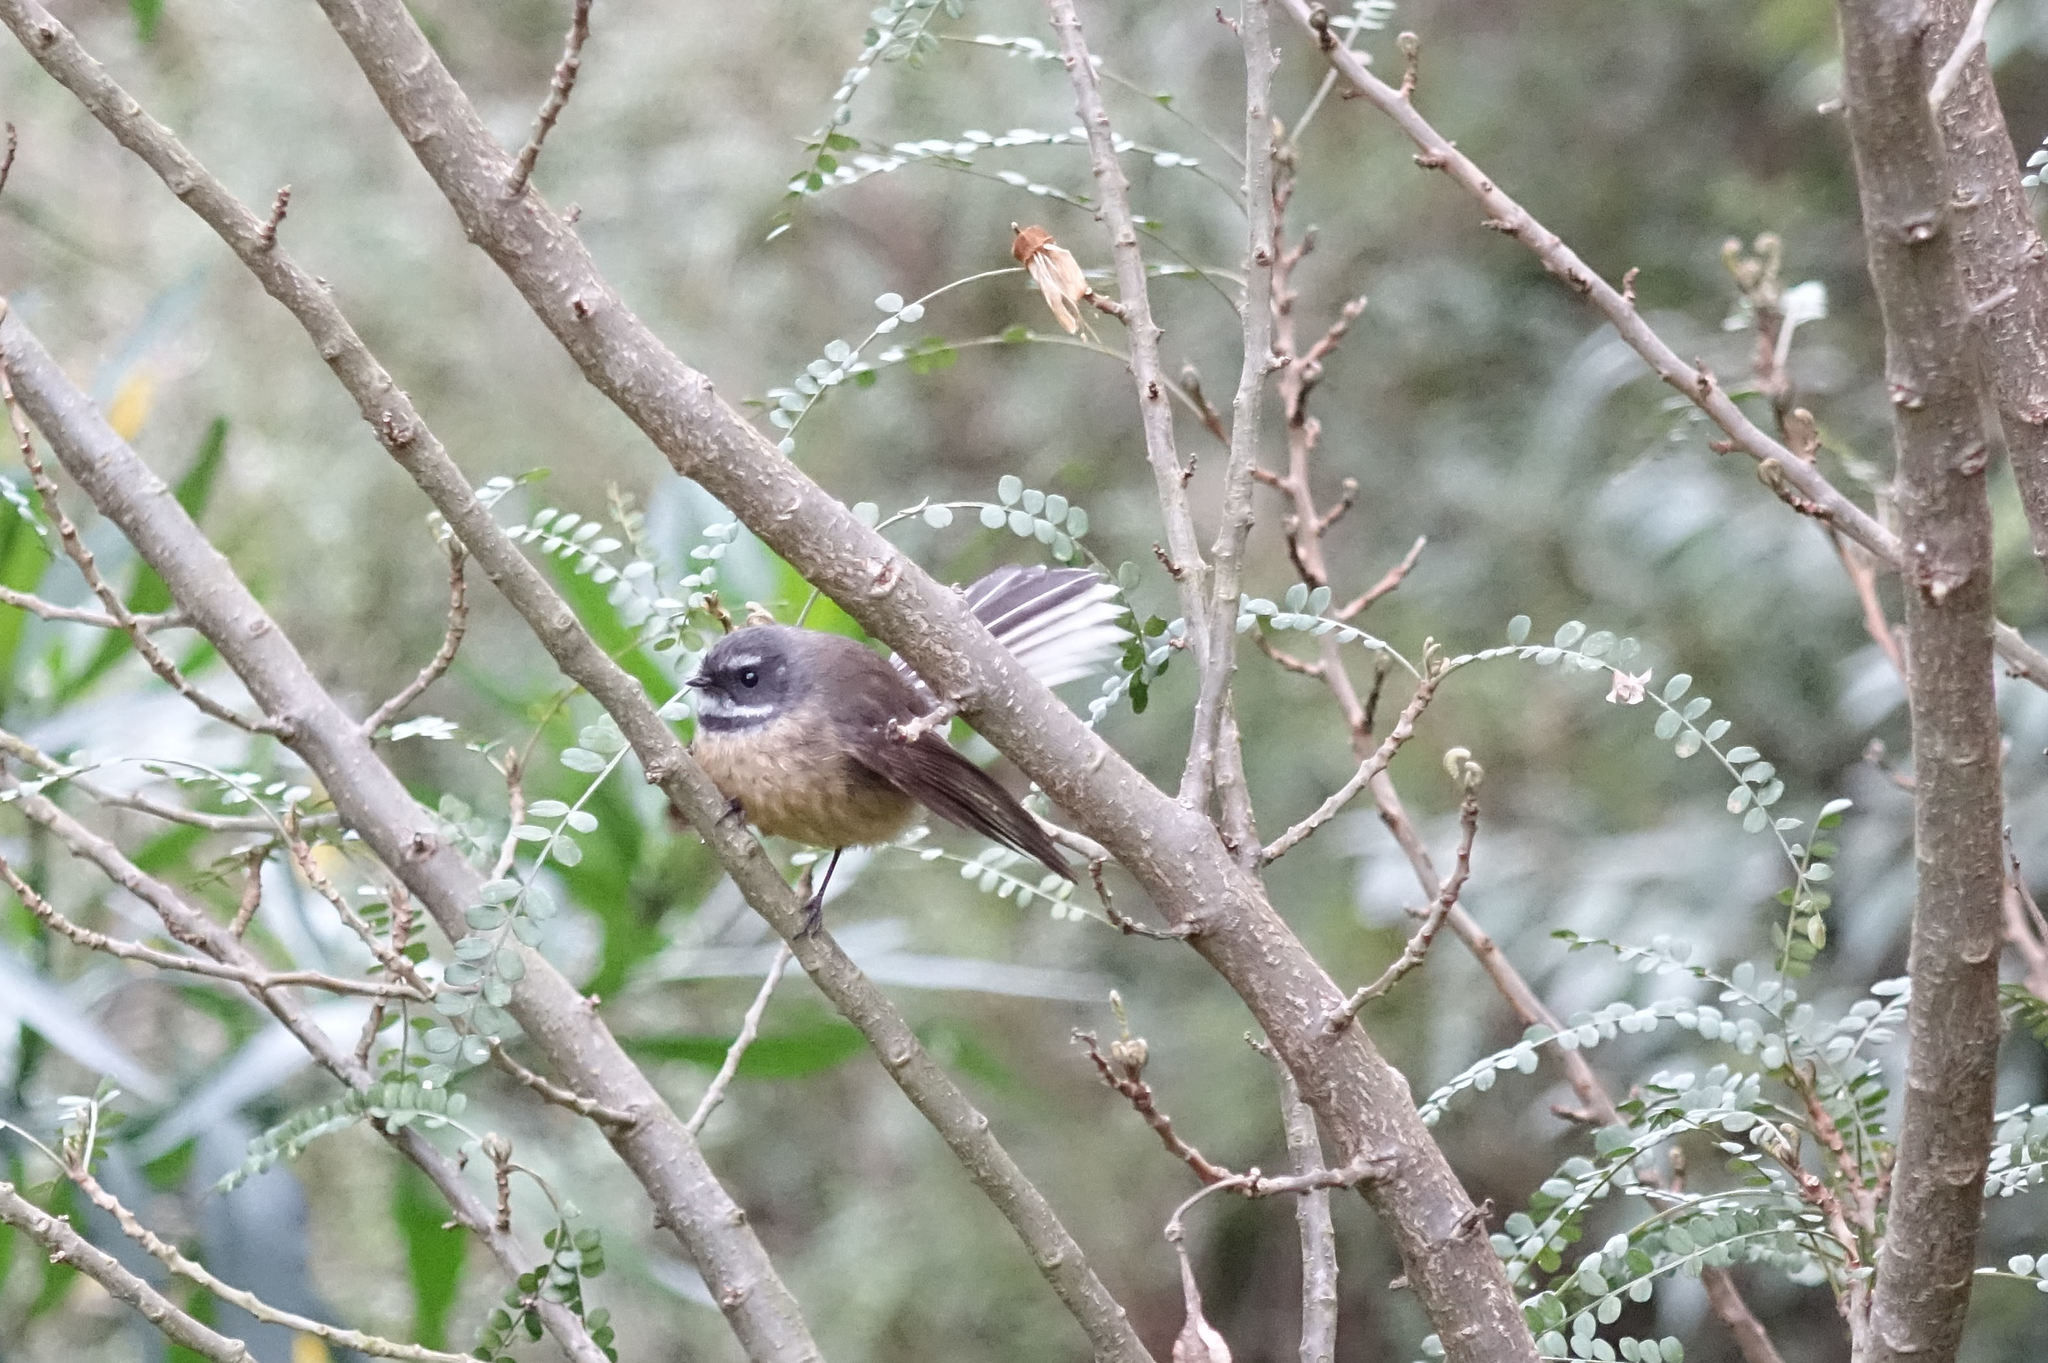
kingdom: Animalia
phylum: Chordata
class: Aves
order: Passeriformes
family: Rhipiduridae
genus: Rhipidura
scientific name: Rhipidura fuliginosa
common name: New zealand fantail
